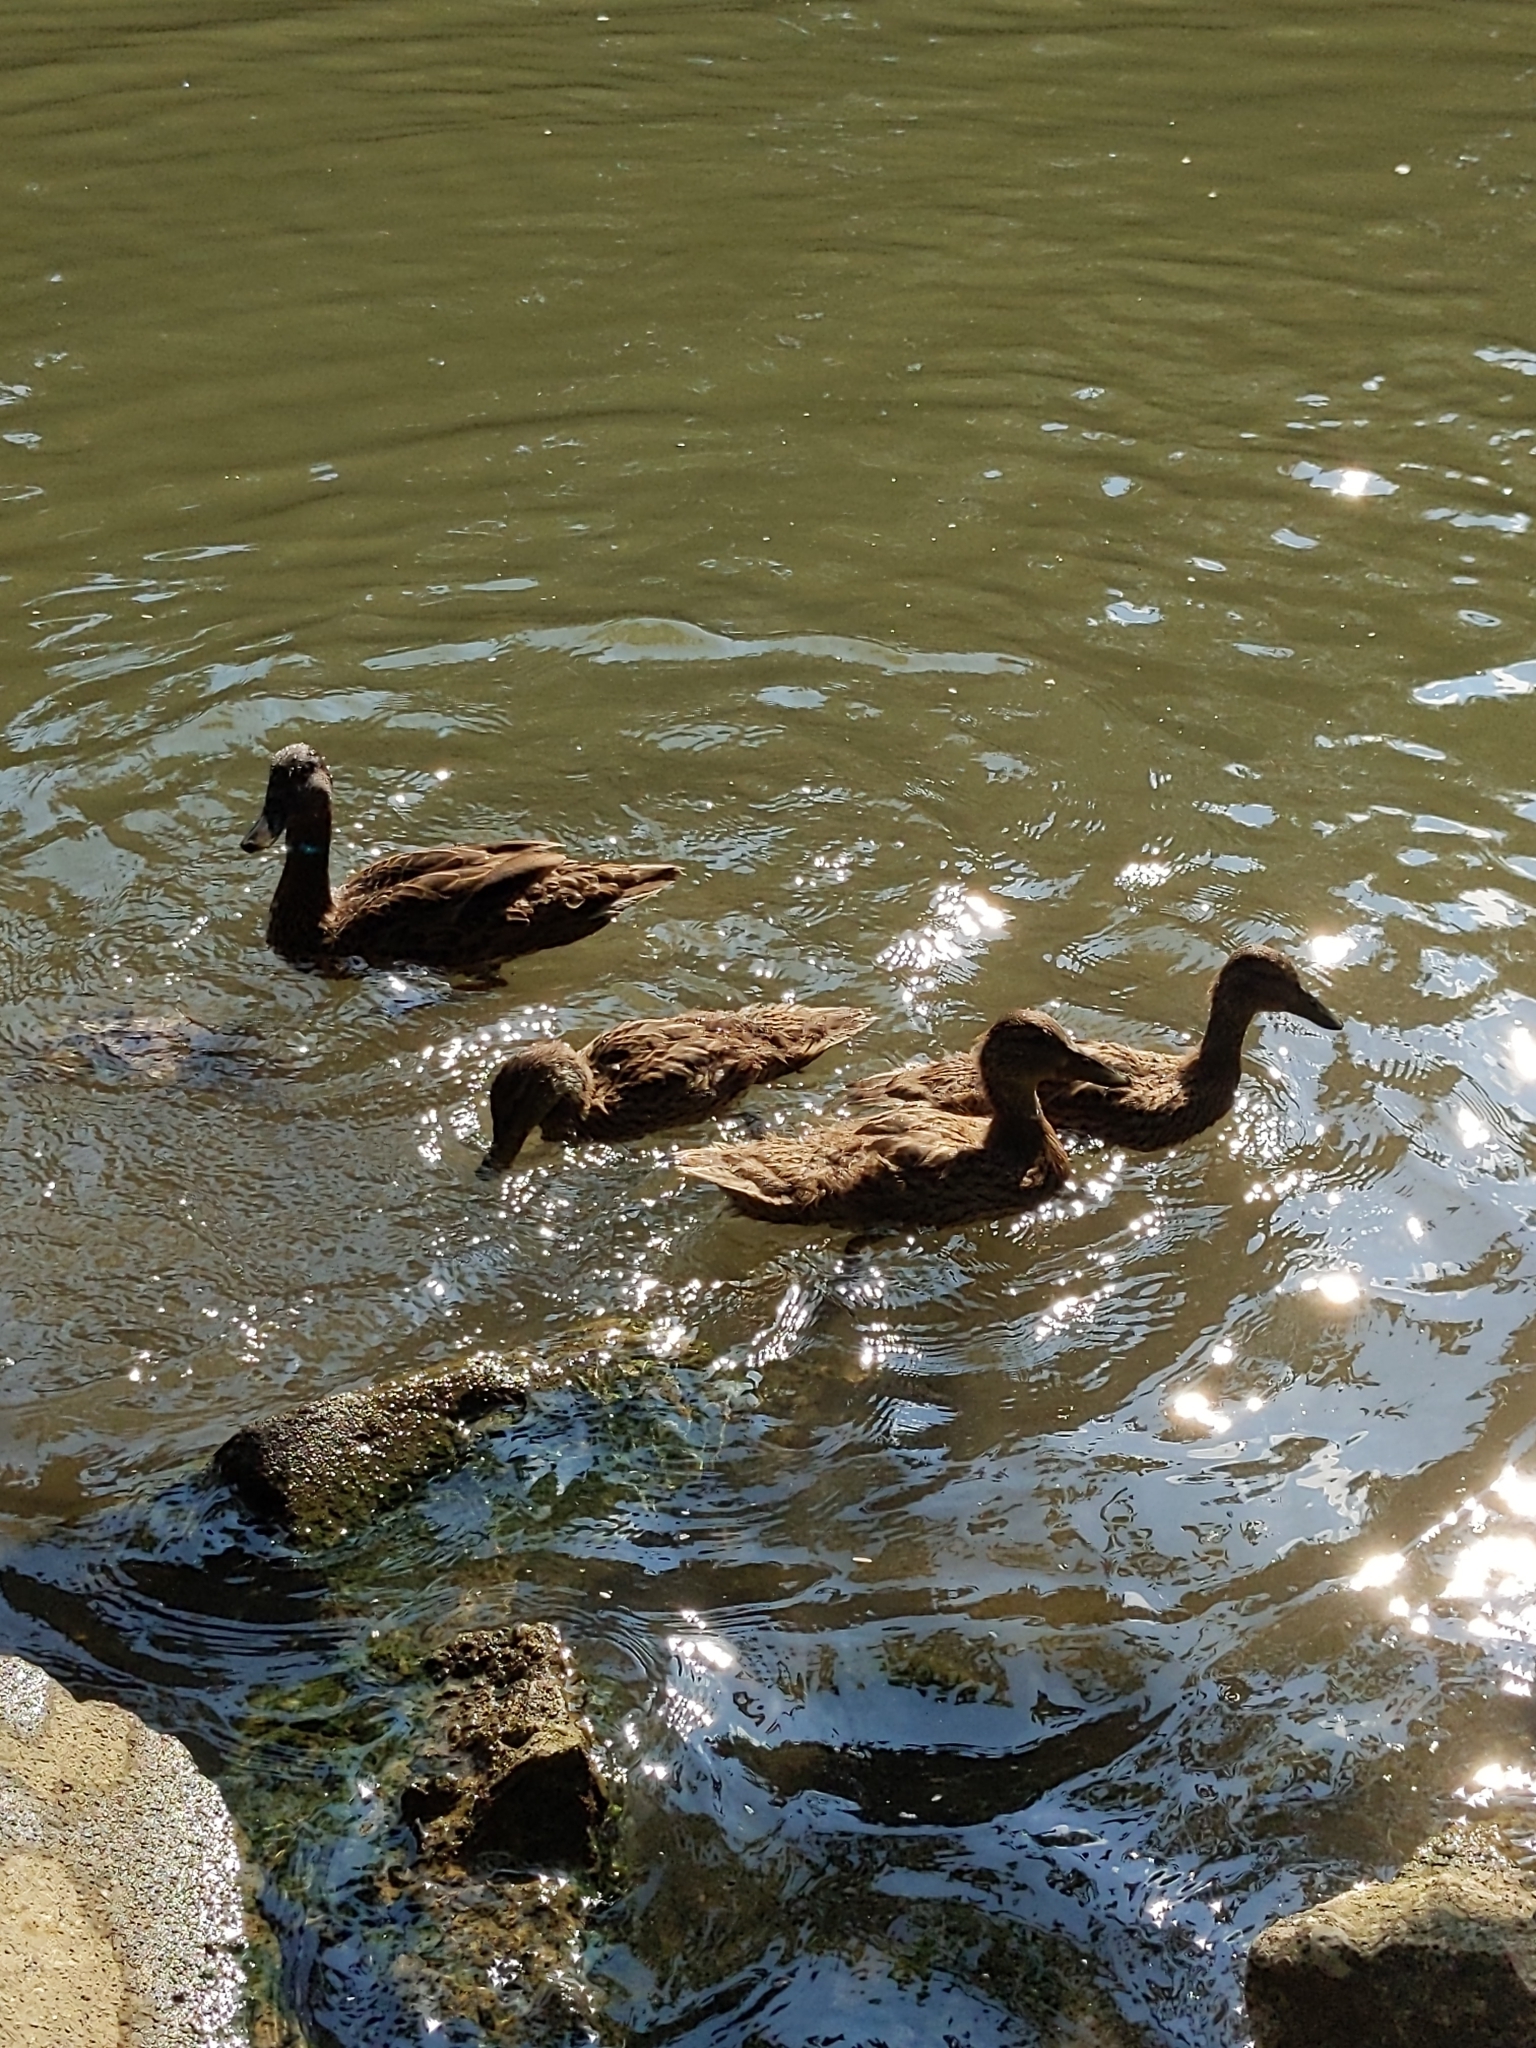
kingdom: Animalia
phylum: Chordata
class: Aves
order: Anseriformes
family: Anatidae
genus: Anas
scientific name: Anas platyrhynchos
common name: Mallard
